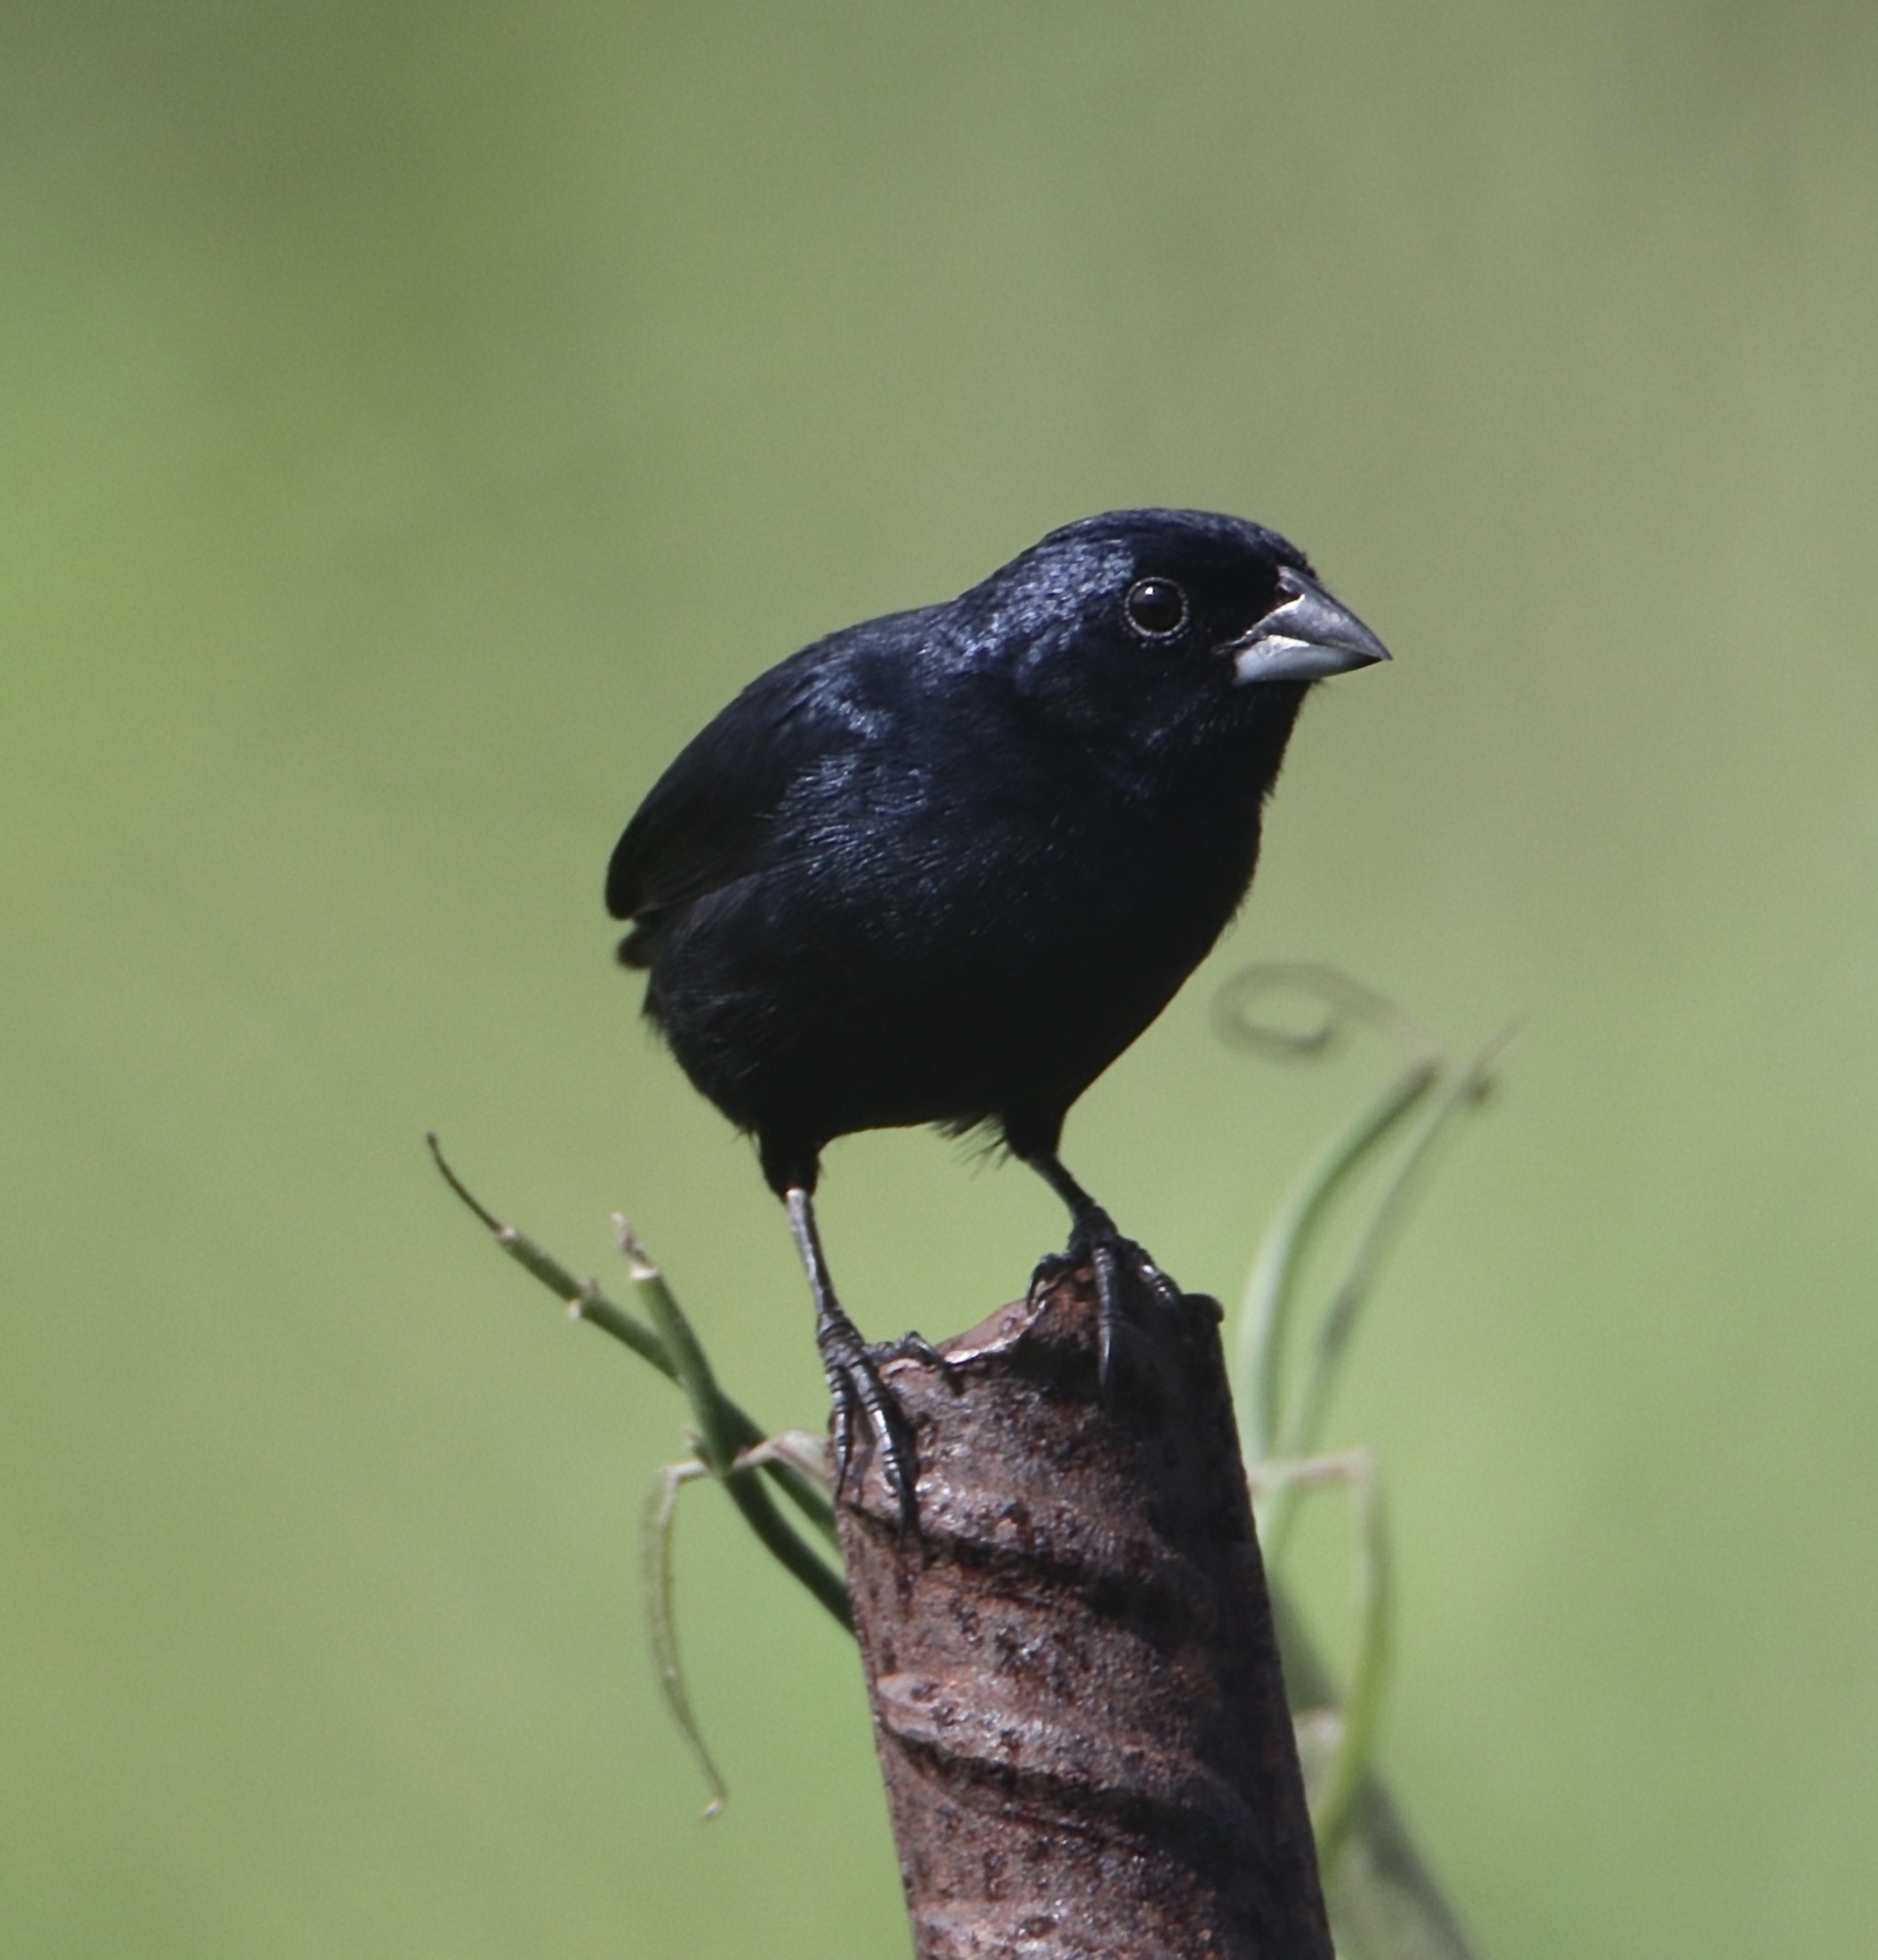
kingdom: Animalia
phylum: Chordata
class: Aves
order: Passeriformes
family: Thraupidae
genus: Volatinia
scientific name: Volatinia jacarina
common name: Blue-black grassquit
